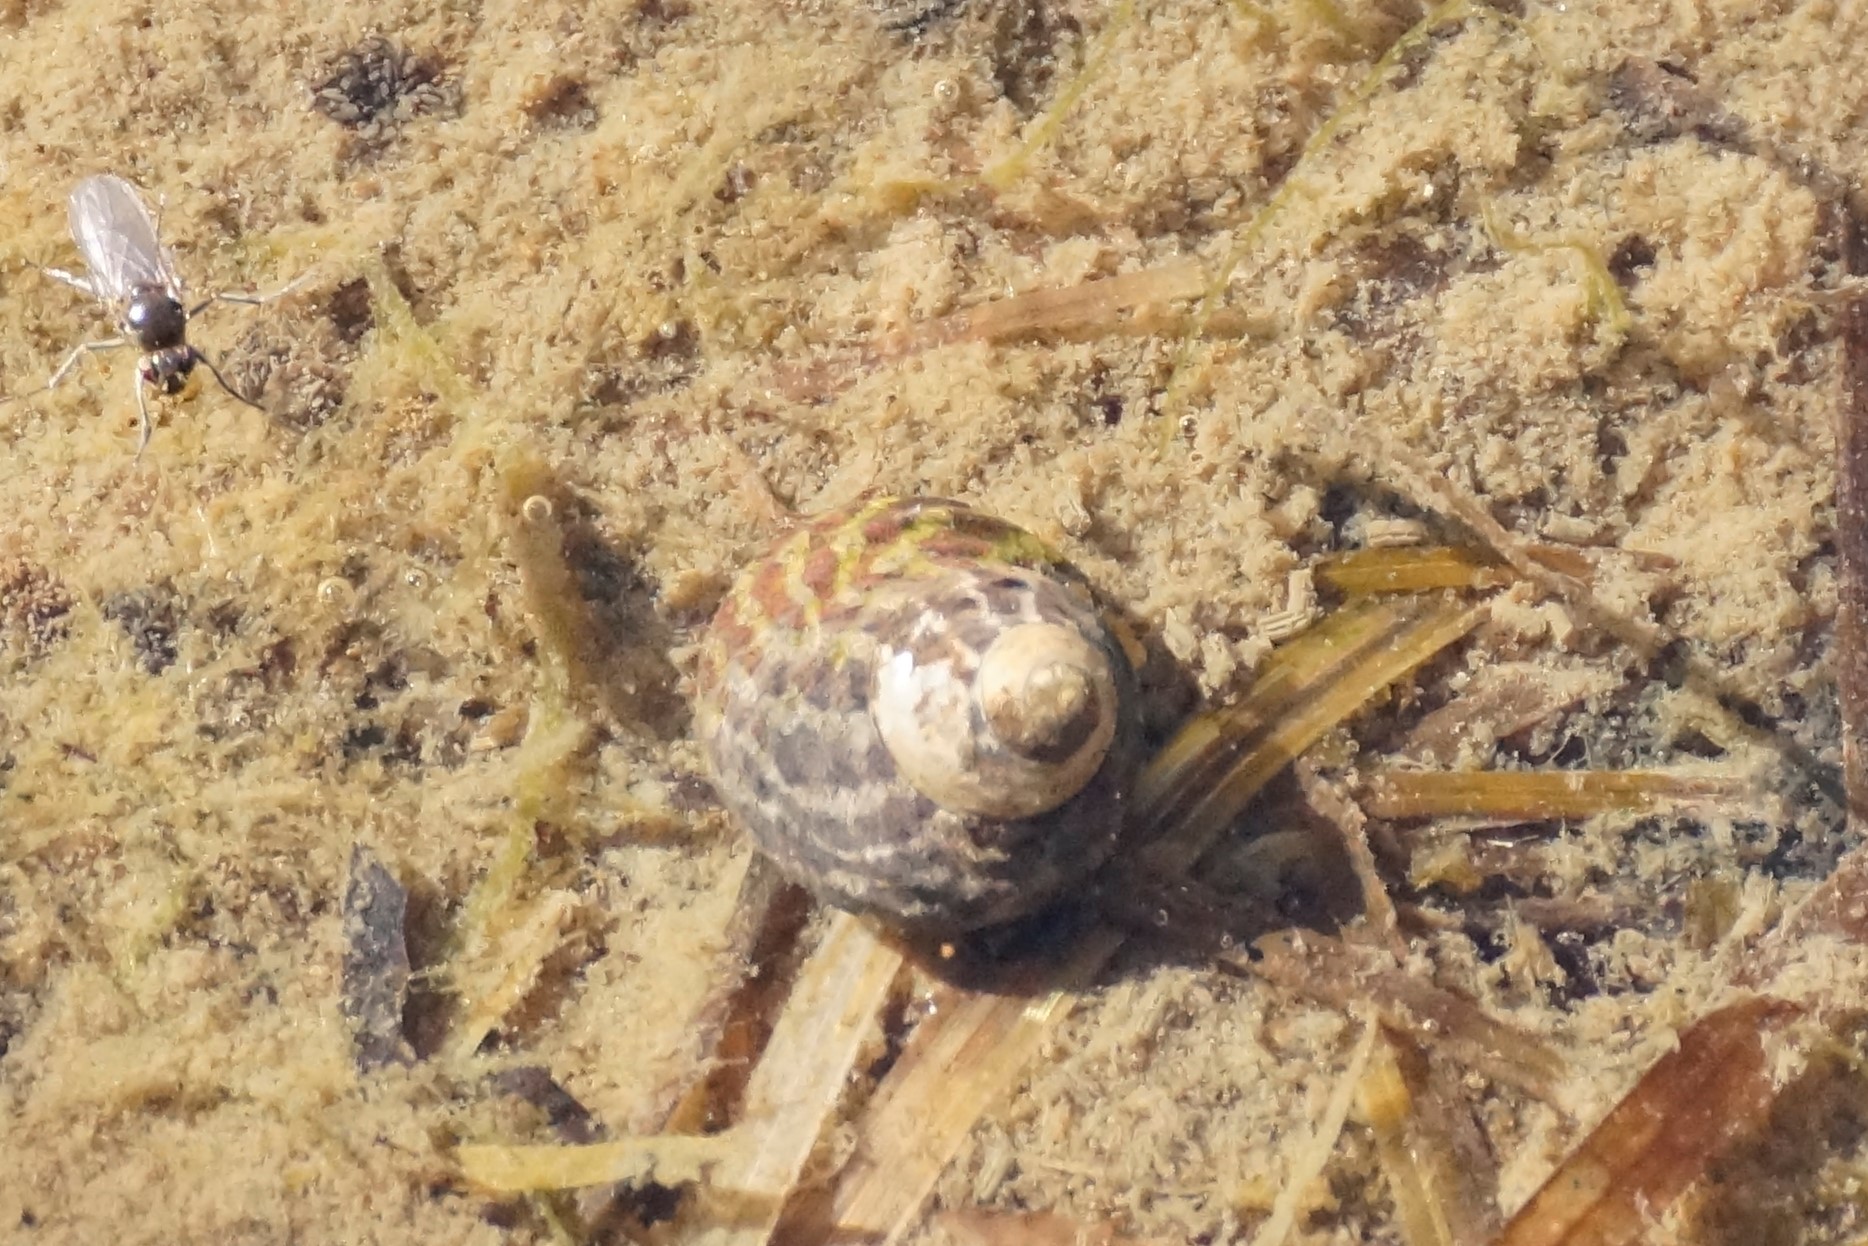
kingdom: Animalia
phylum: Mollusca
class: Gastropoda
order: Trochida
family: Trochidae
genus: Austrocochlea
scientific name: Austrocochlea porcata
